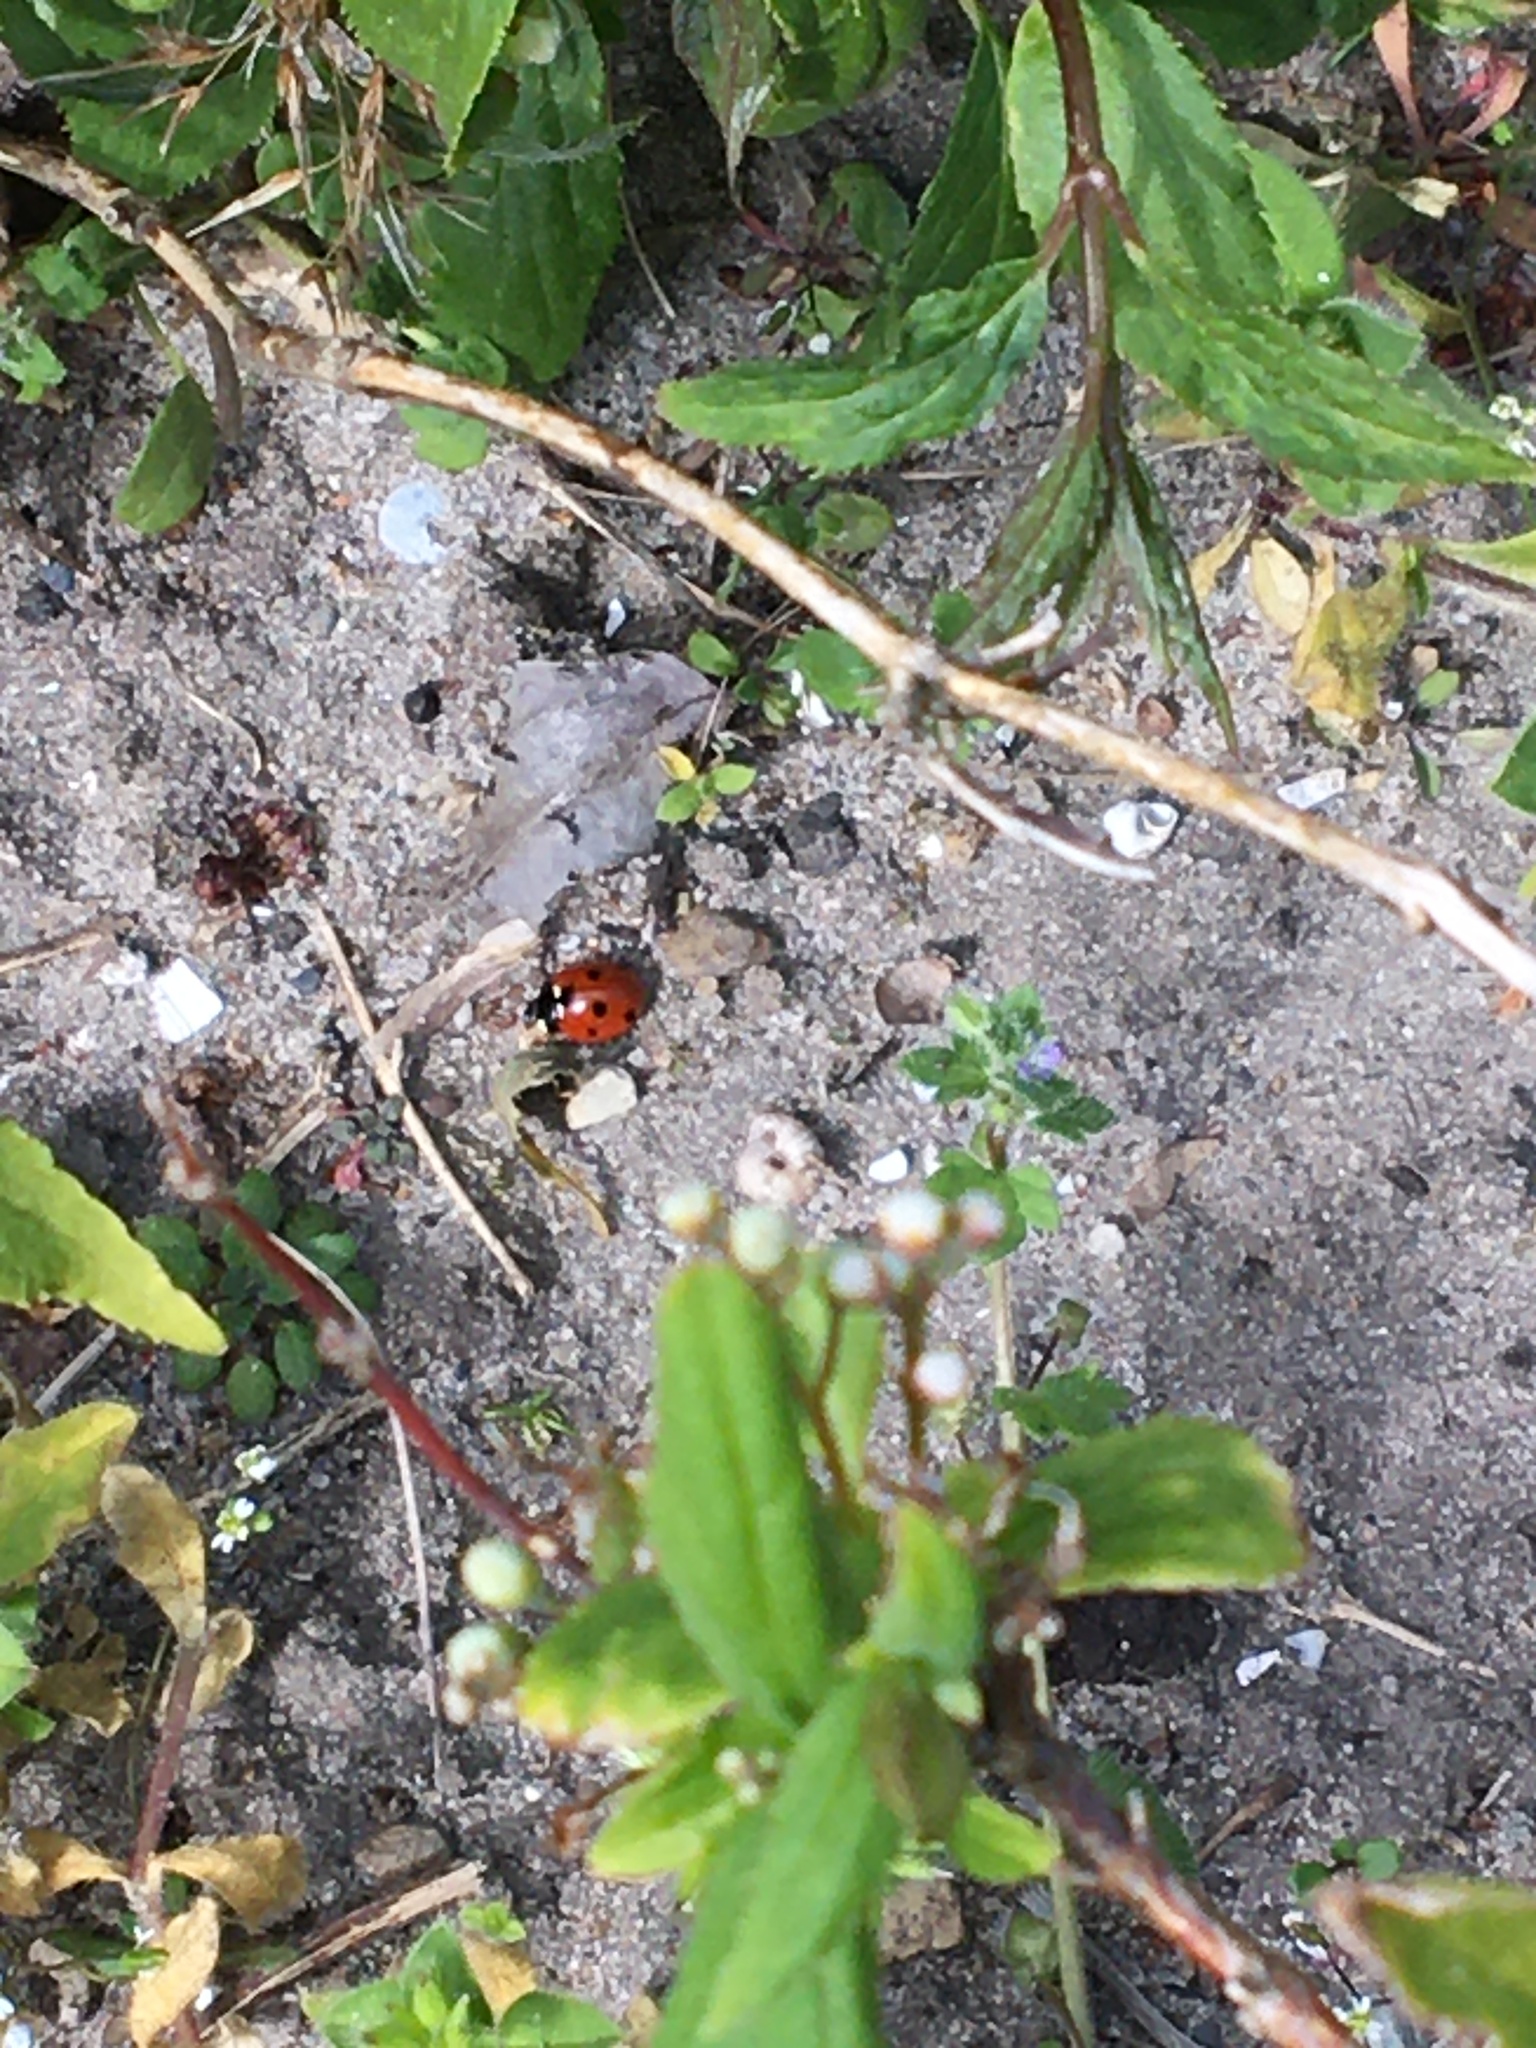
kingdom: Animalia
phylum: Arthropoda
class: Insecta
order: Coleoptera
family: Coccinellidae
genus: Coccinella
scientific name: Coccinella septempunctata
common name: Sevenspotted lady beetle
